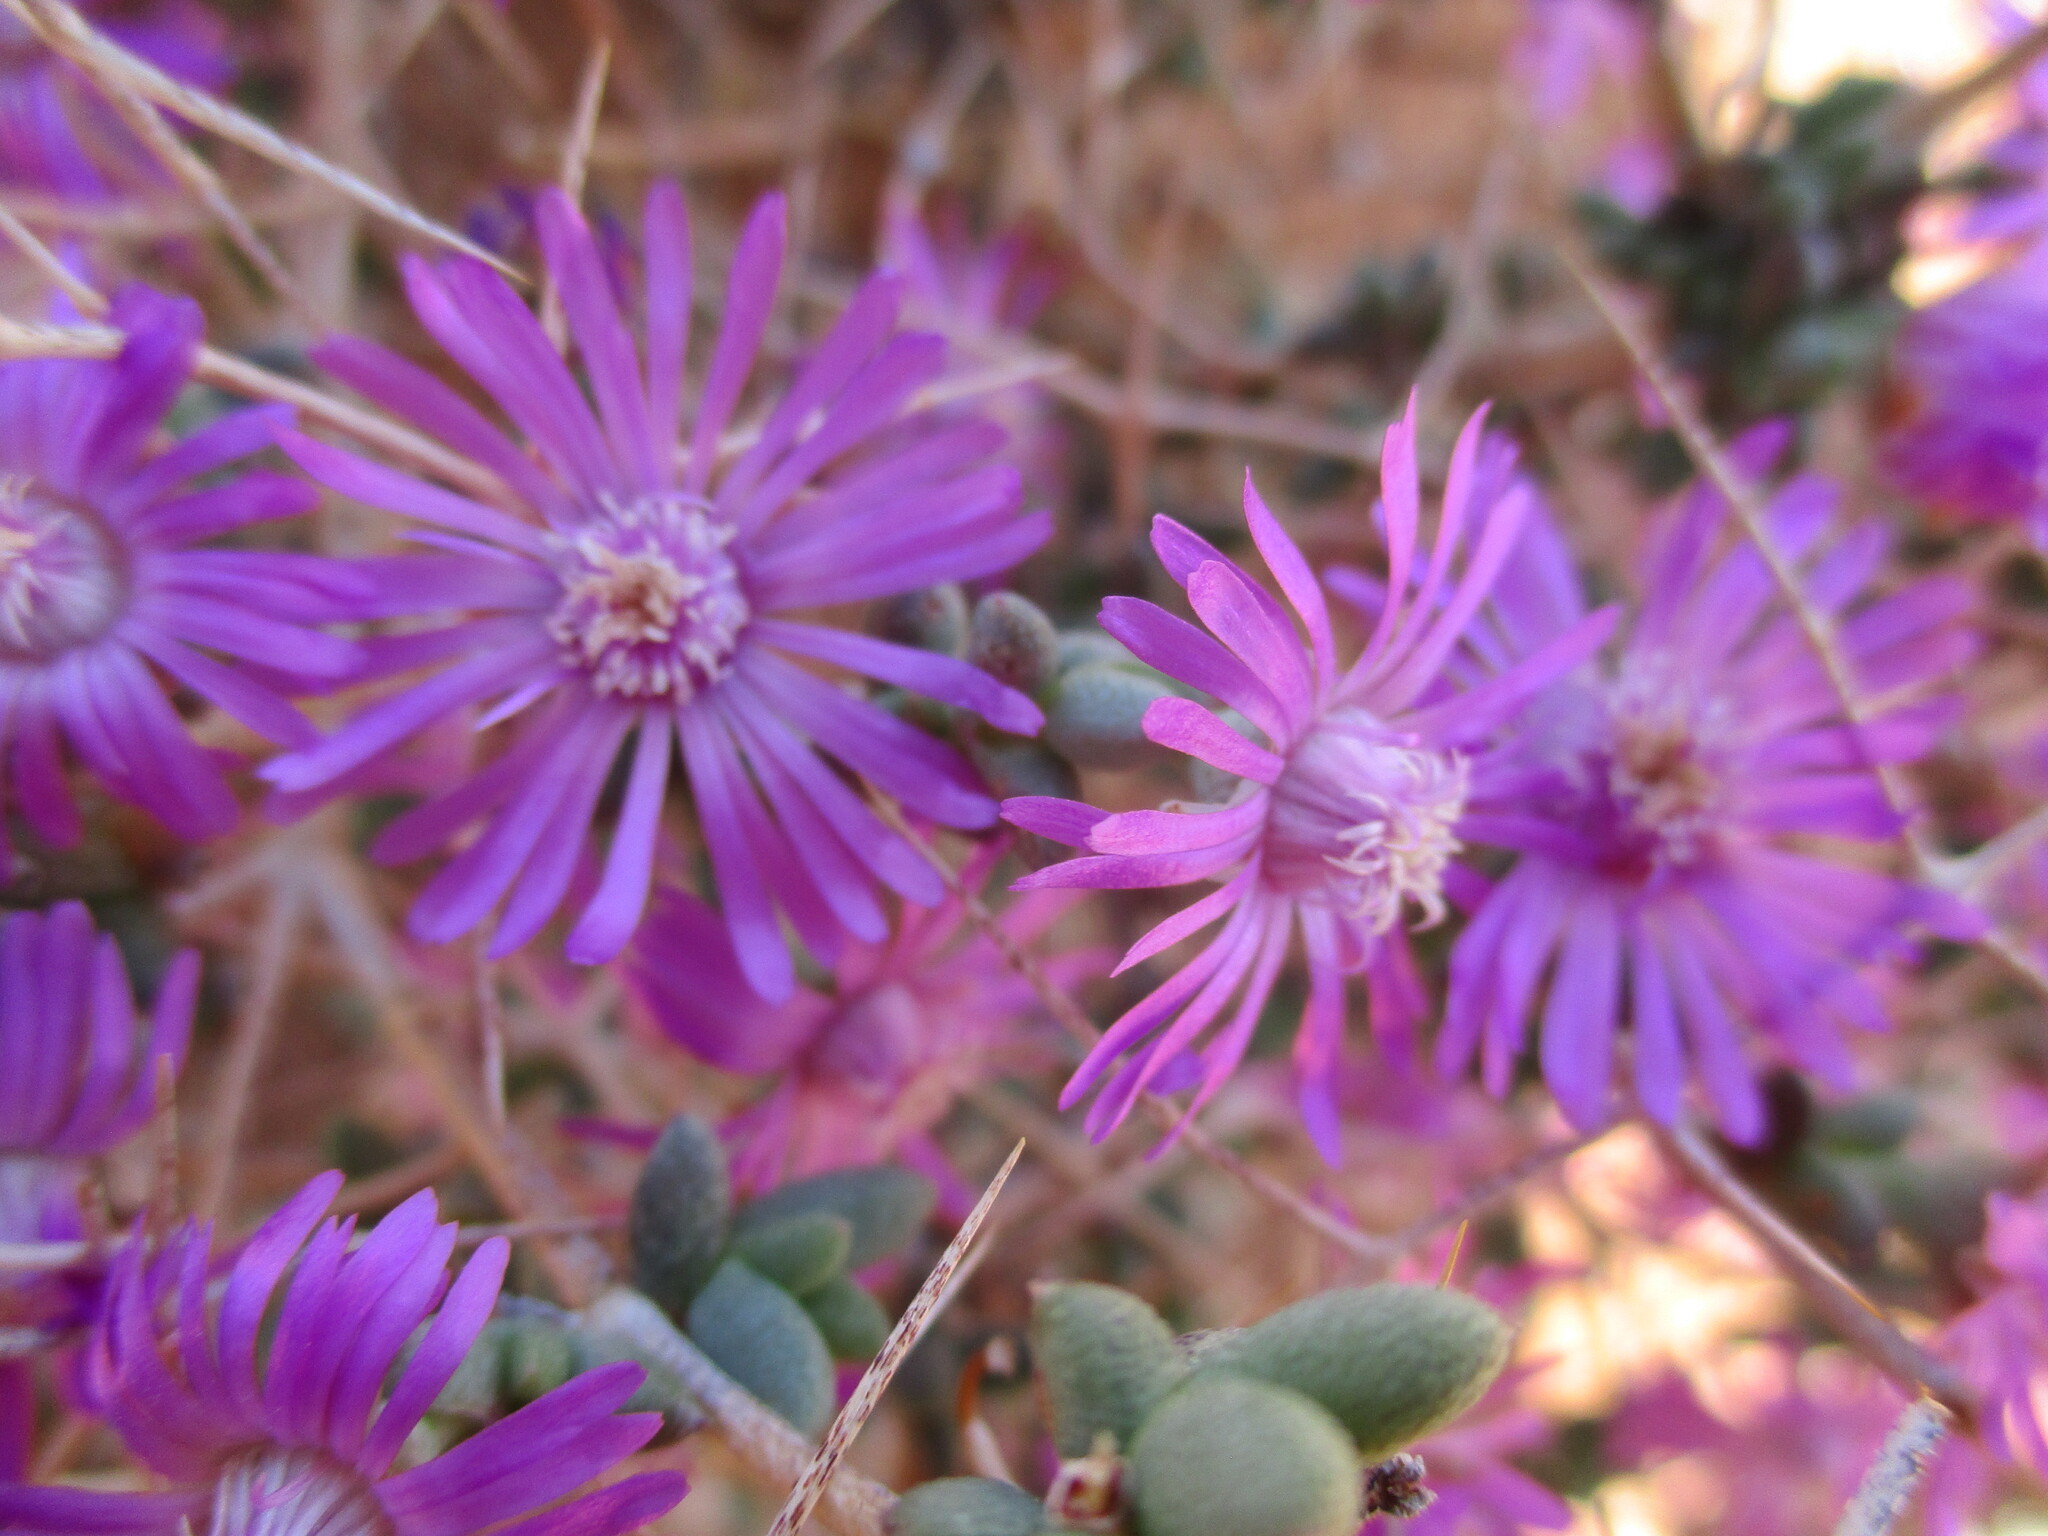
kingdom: Plantae
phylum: Tracheophyta
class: Magnoliopsida
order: Caryophyllales
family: Aizoaceae
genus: Ruschia
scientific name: Ruschia divaricata
